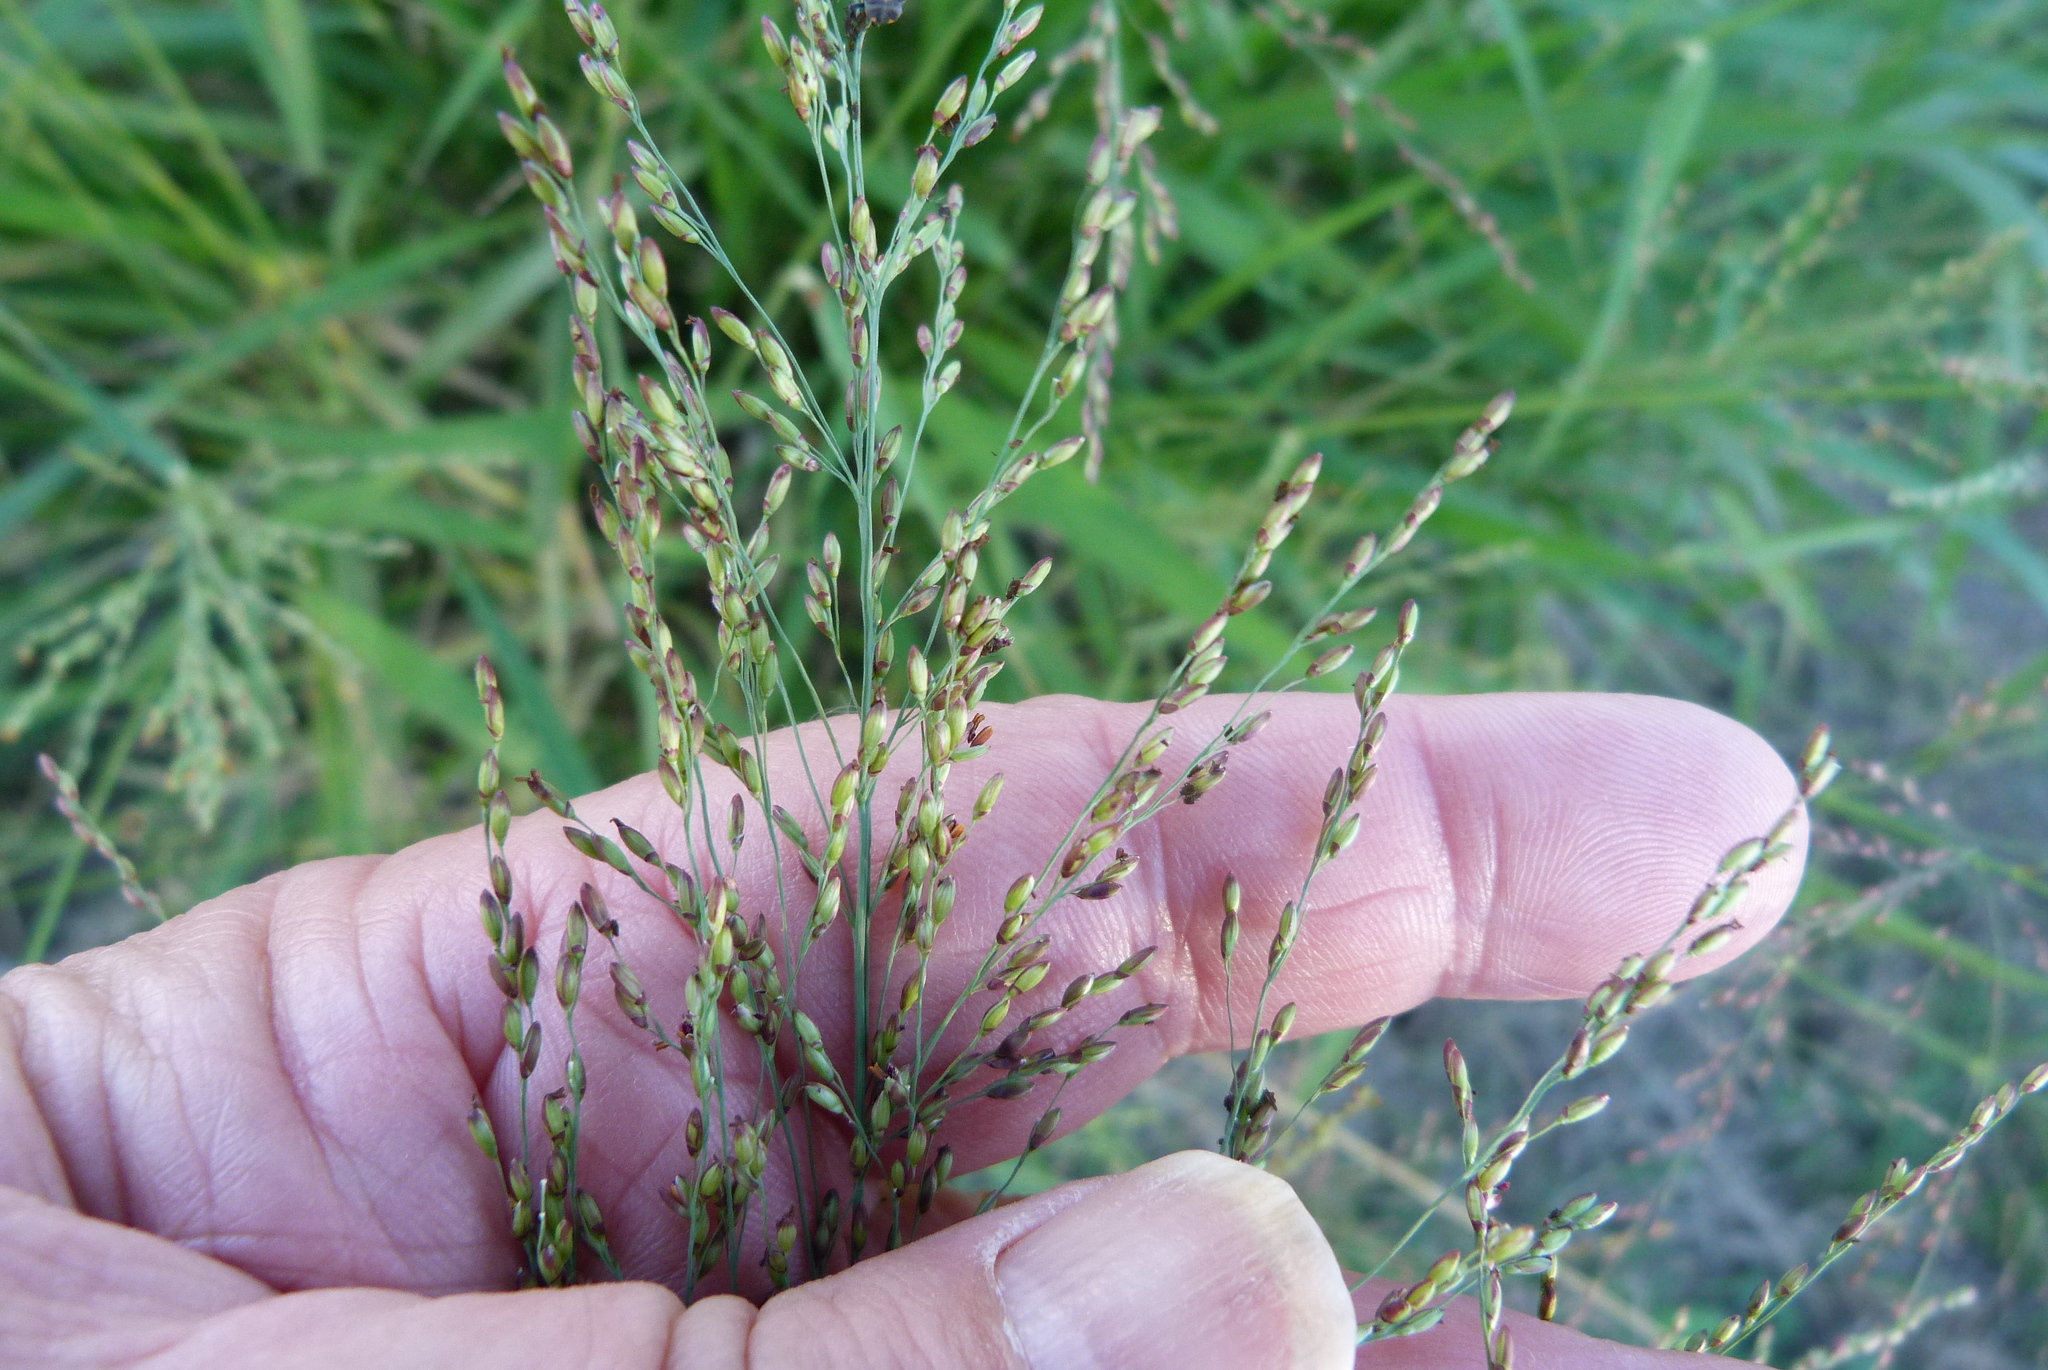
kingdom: Plantae
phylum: Tracheophyta
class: Liliopsida
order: Poales
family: Poaceae
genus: Megathyrsus
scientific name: Megathyrsus maximus
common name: Guineagrass
